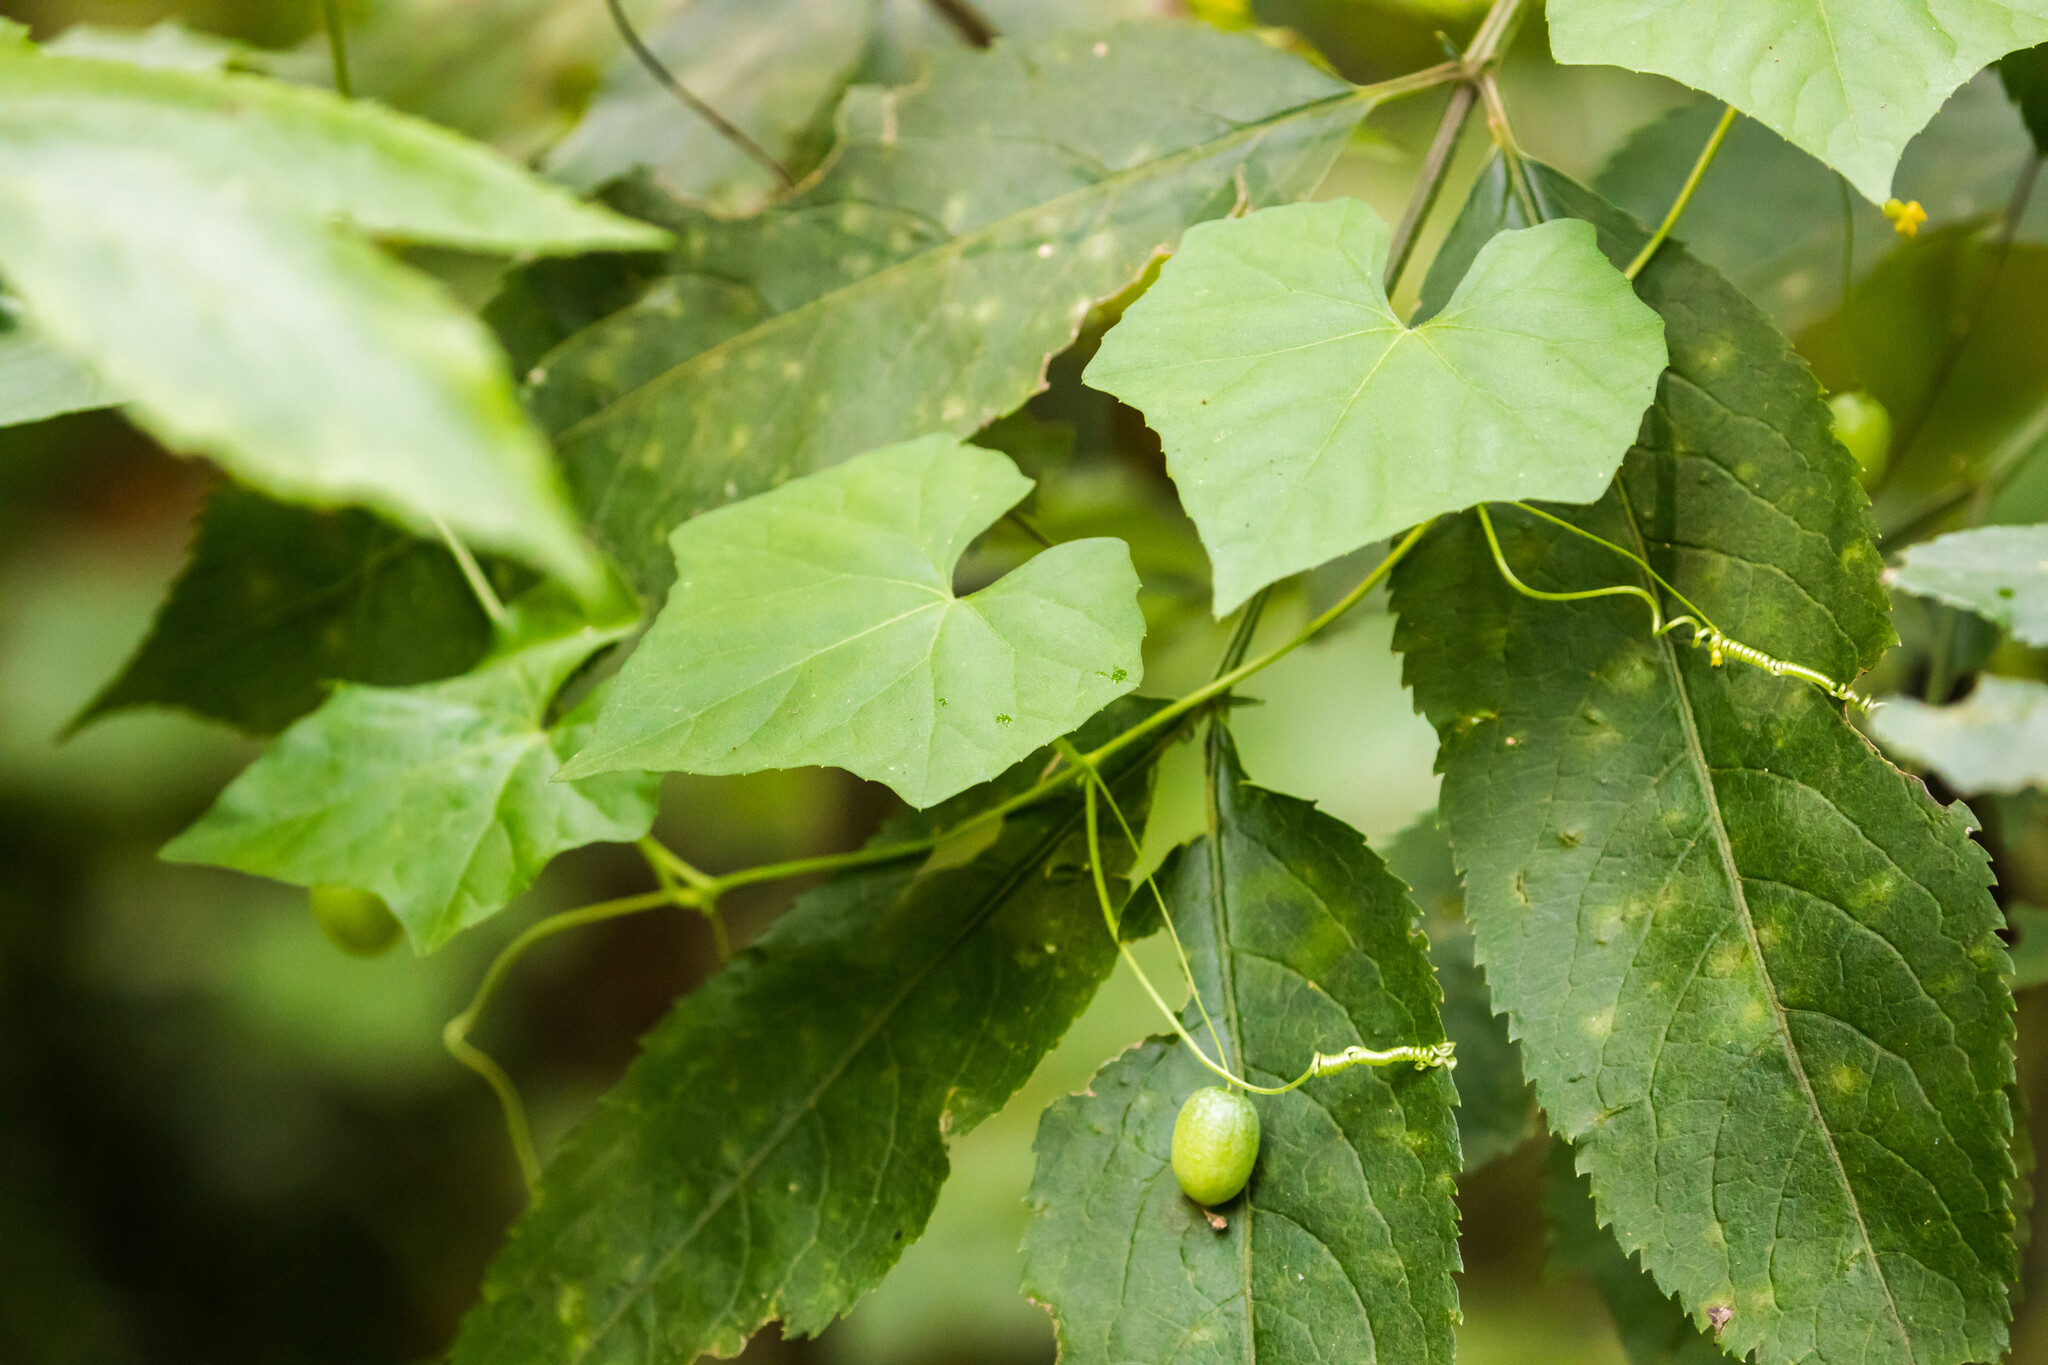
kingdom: Plantae
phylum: Tracheophyta
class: Magnoliopsida
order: Cucurbitales
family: Cucurbitaceae
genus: Melothria
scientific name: Melothria pendula
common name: Creeping-cucumber
